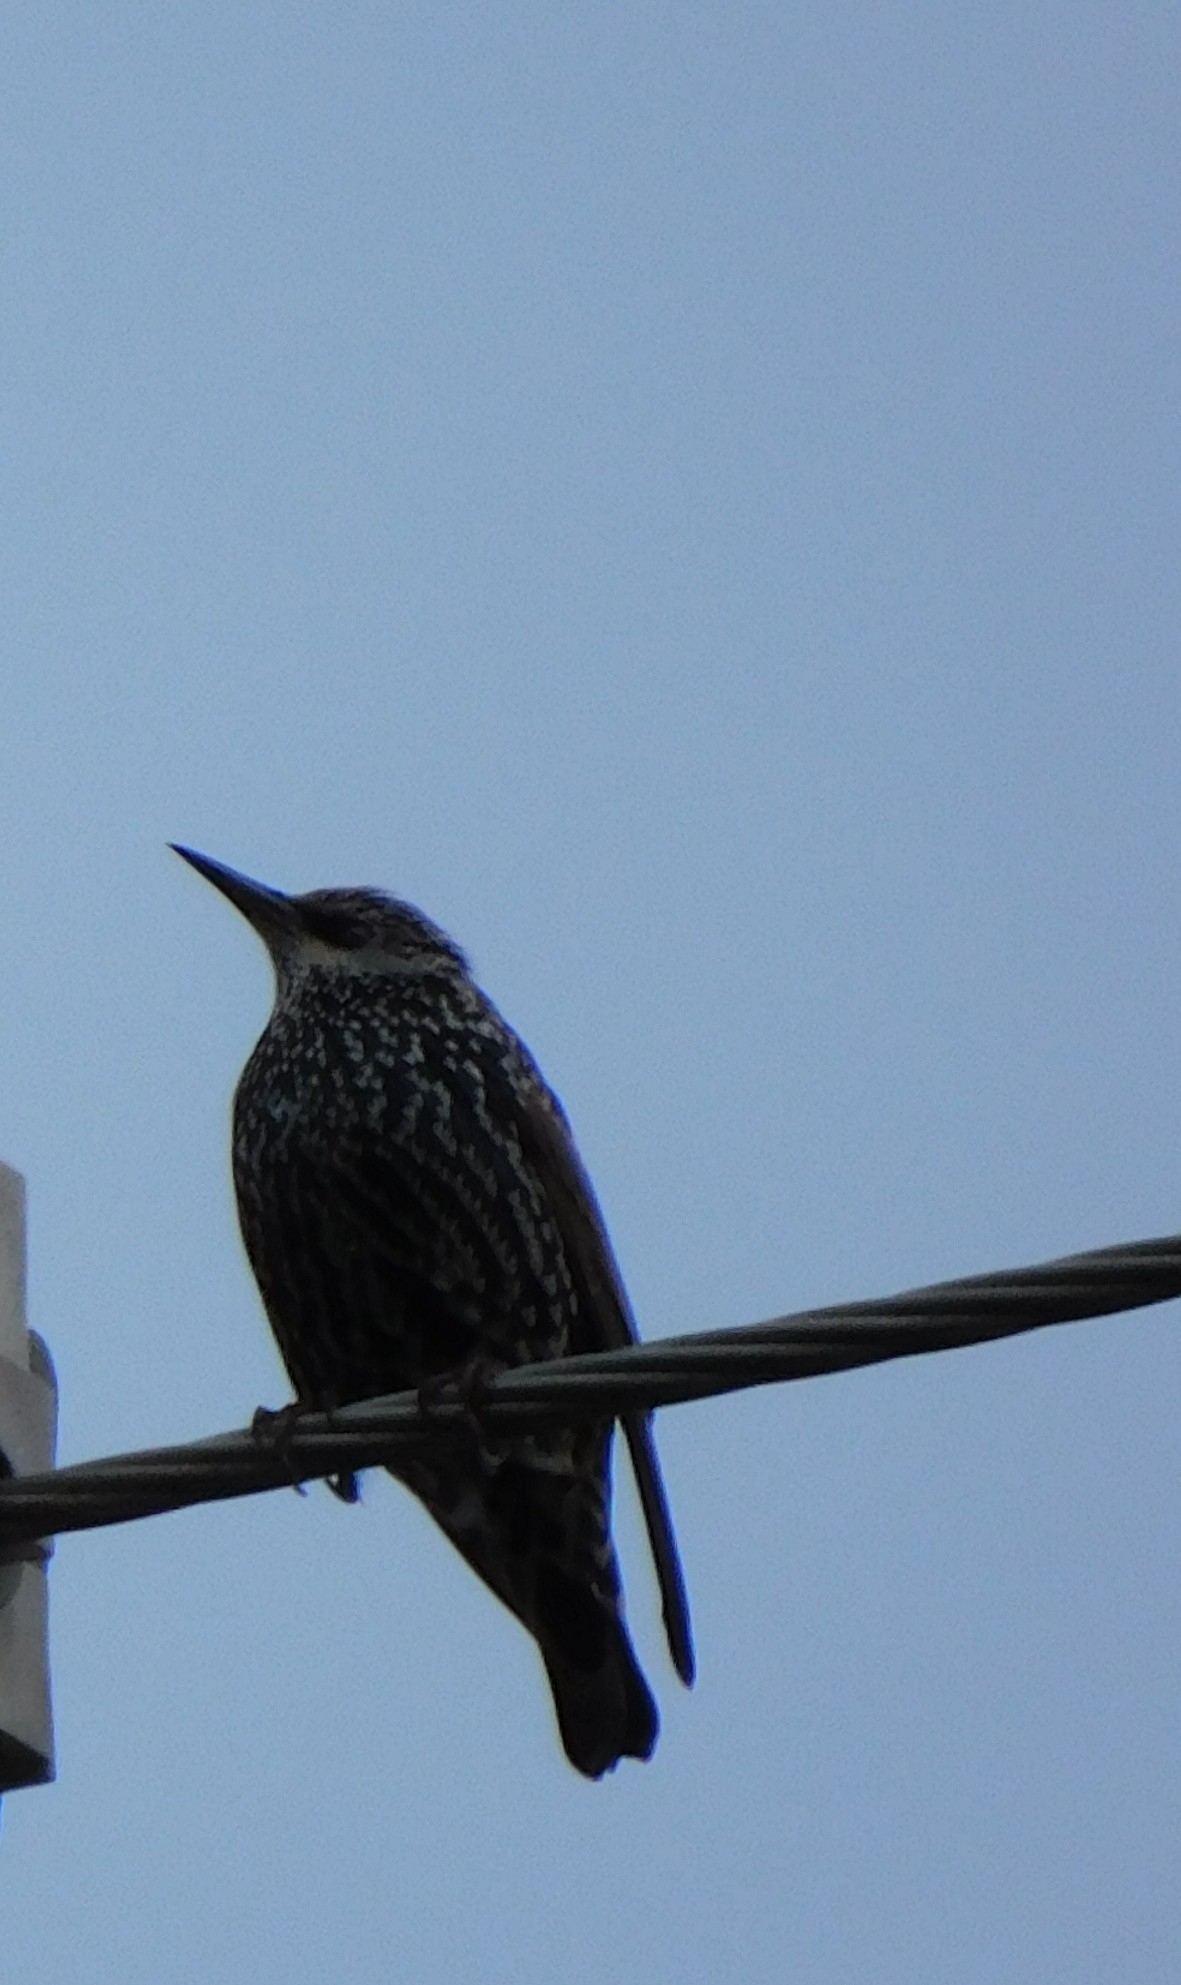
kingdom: Animalia
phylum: Chordata
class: Aves
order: Passeriformes
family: Sturnidae
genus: Sturnus
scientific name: Sturnus vulgaris
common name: Common starling
